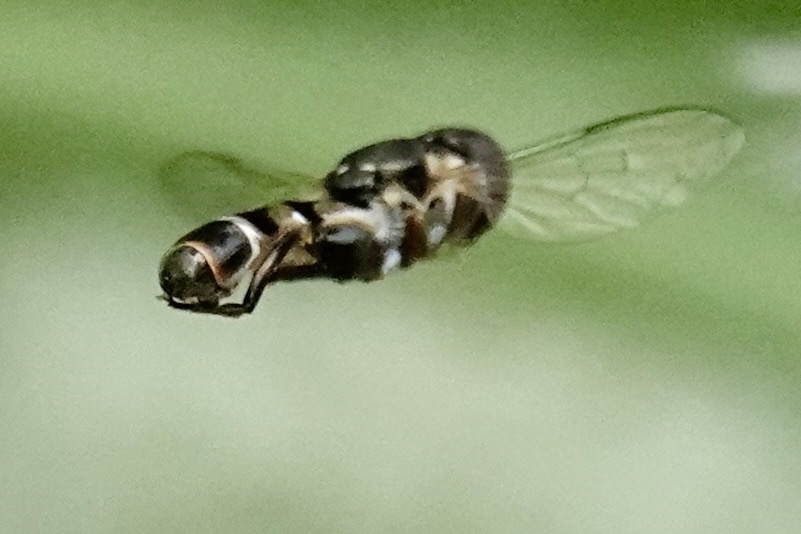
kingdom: Animalia
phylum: Arthropoda
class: Insecta
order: Diptera
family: Syrphidae
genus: Syritta
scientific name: Syritta pipiens
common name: Hover fly
